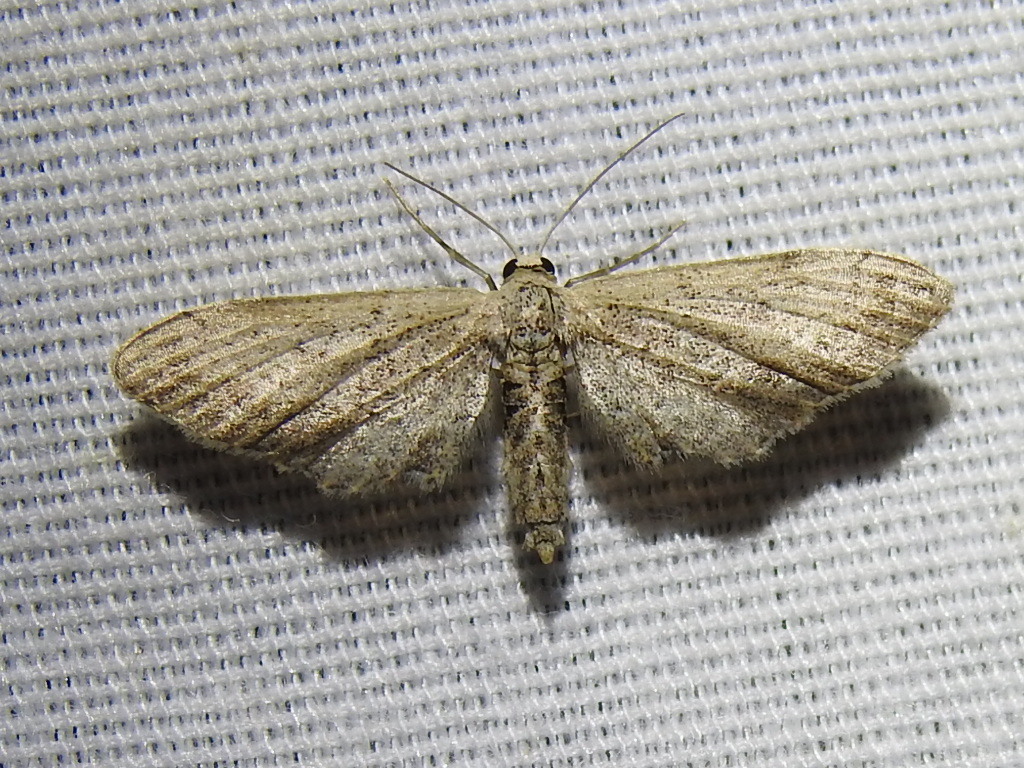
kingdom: Animalia
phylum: Arthropoda
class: Insecta
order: Lepidoptera
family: Geometridae
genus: Eumacrodes
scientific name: Eumacrodes yponomeutaria
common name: Slender geometrid moth
